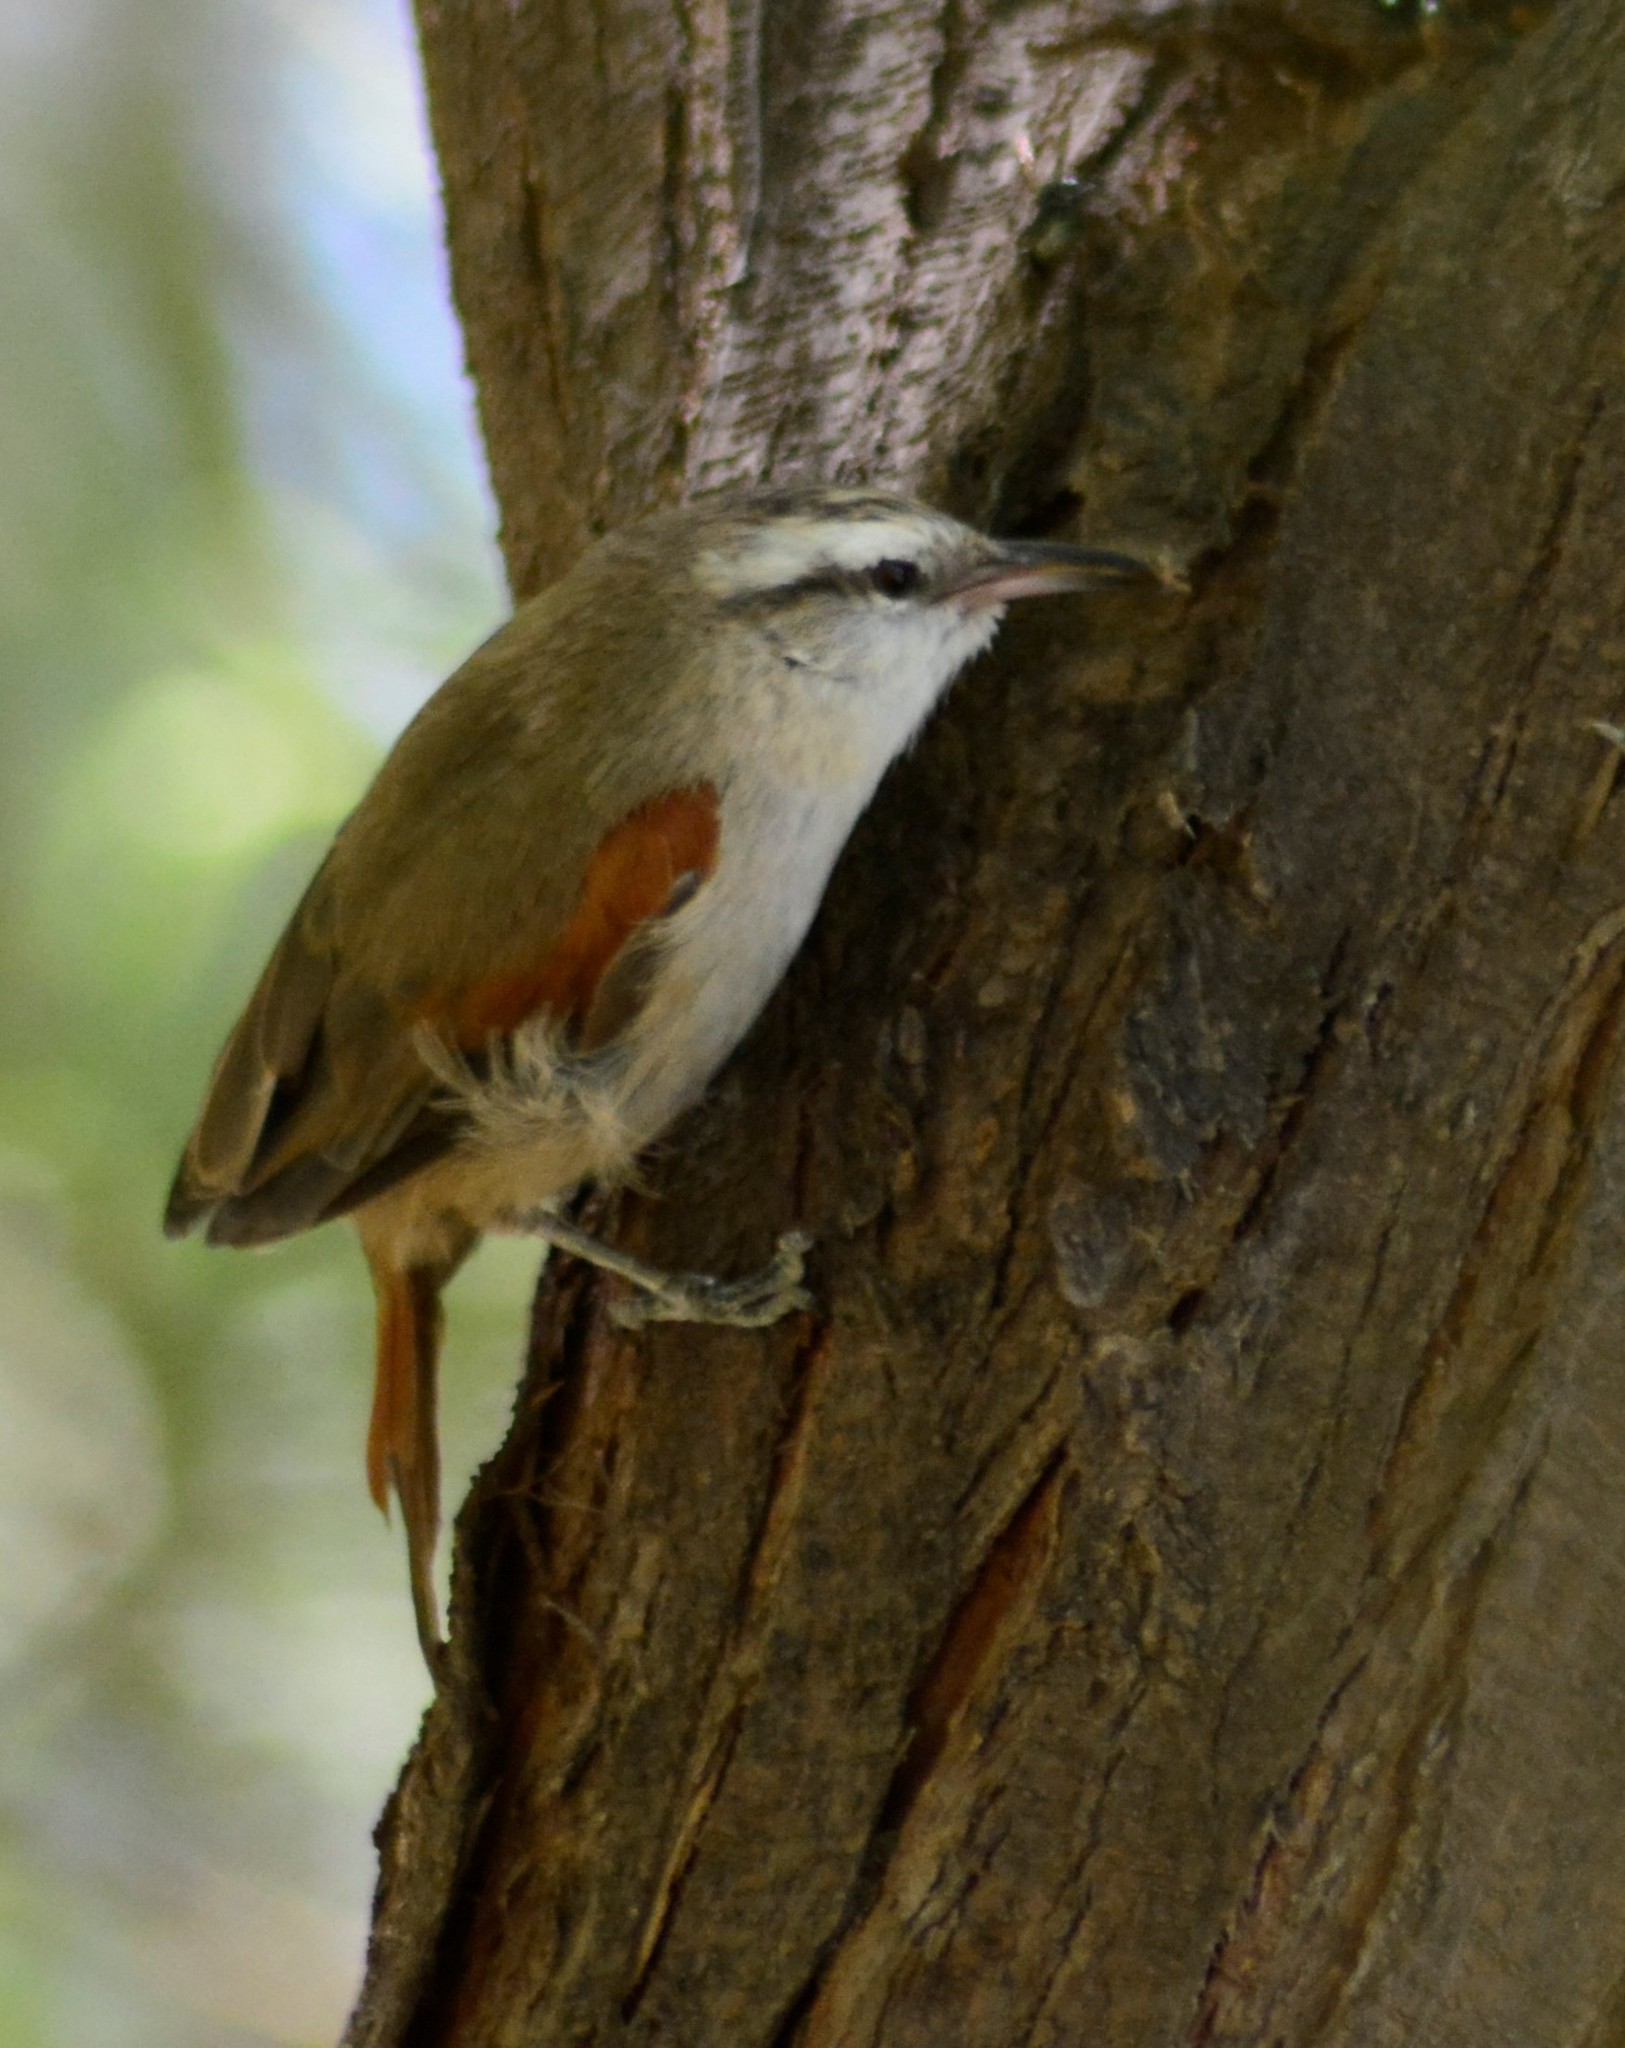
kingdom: Animalia
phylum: Chordata
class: Aves
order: Passeriformes
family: Furnariidae
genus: Cranioleuca
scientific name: Cranioleuca pyrrhophia
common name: Stripe-crowned spinetail
